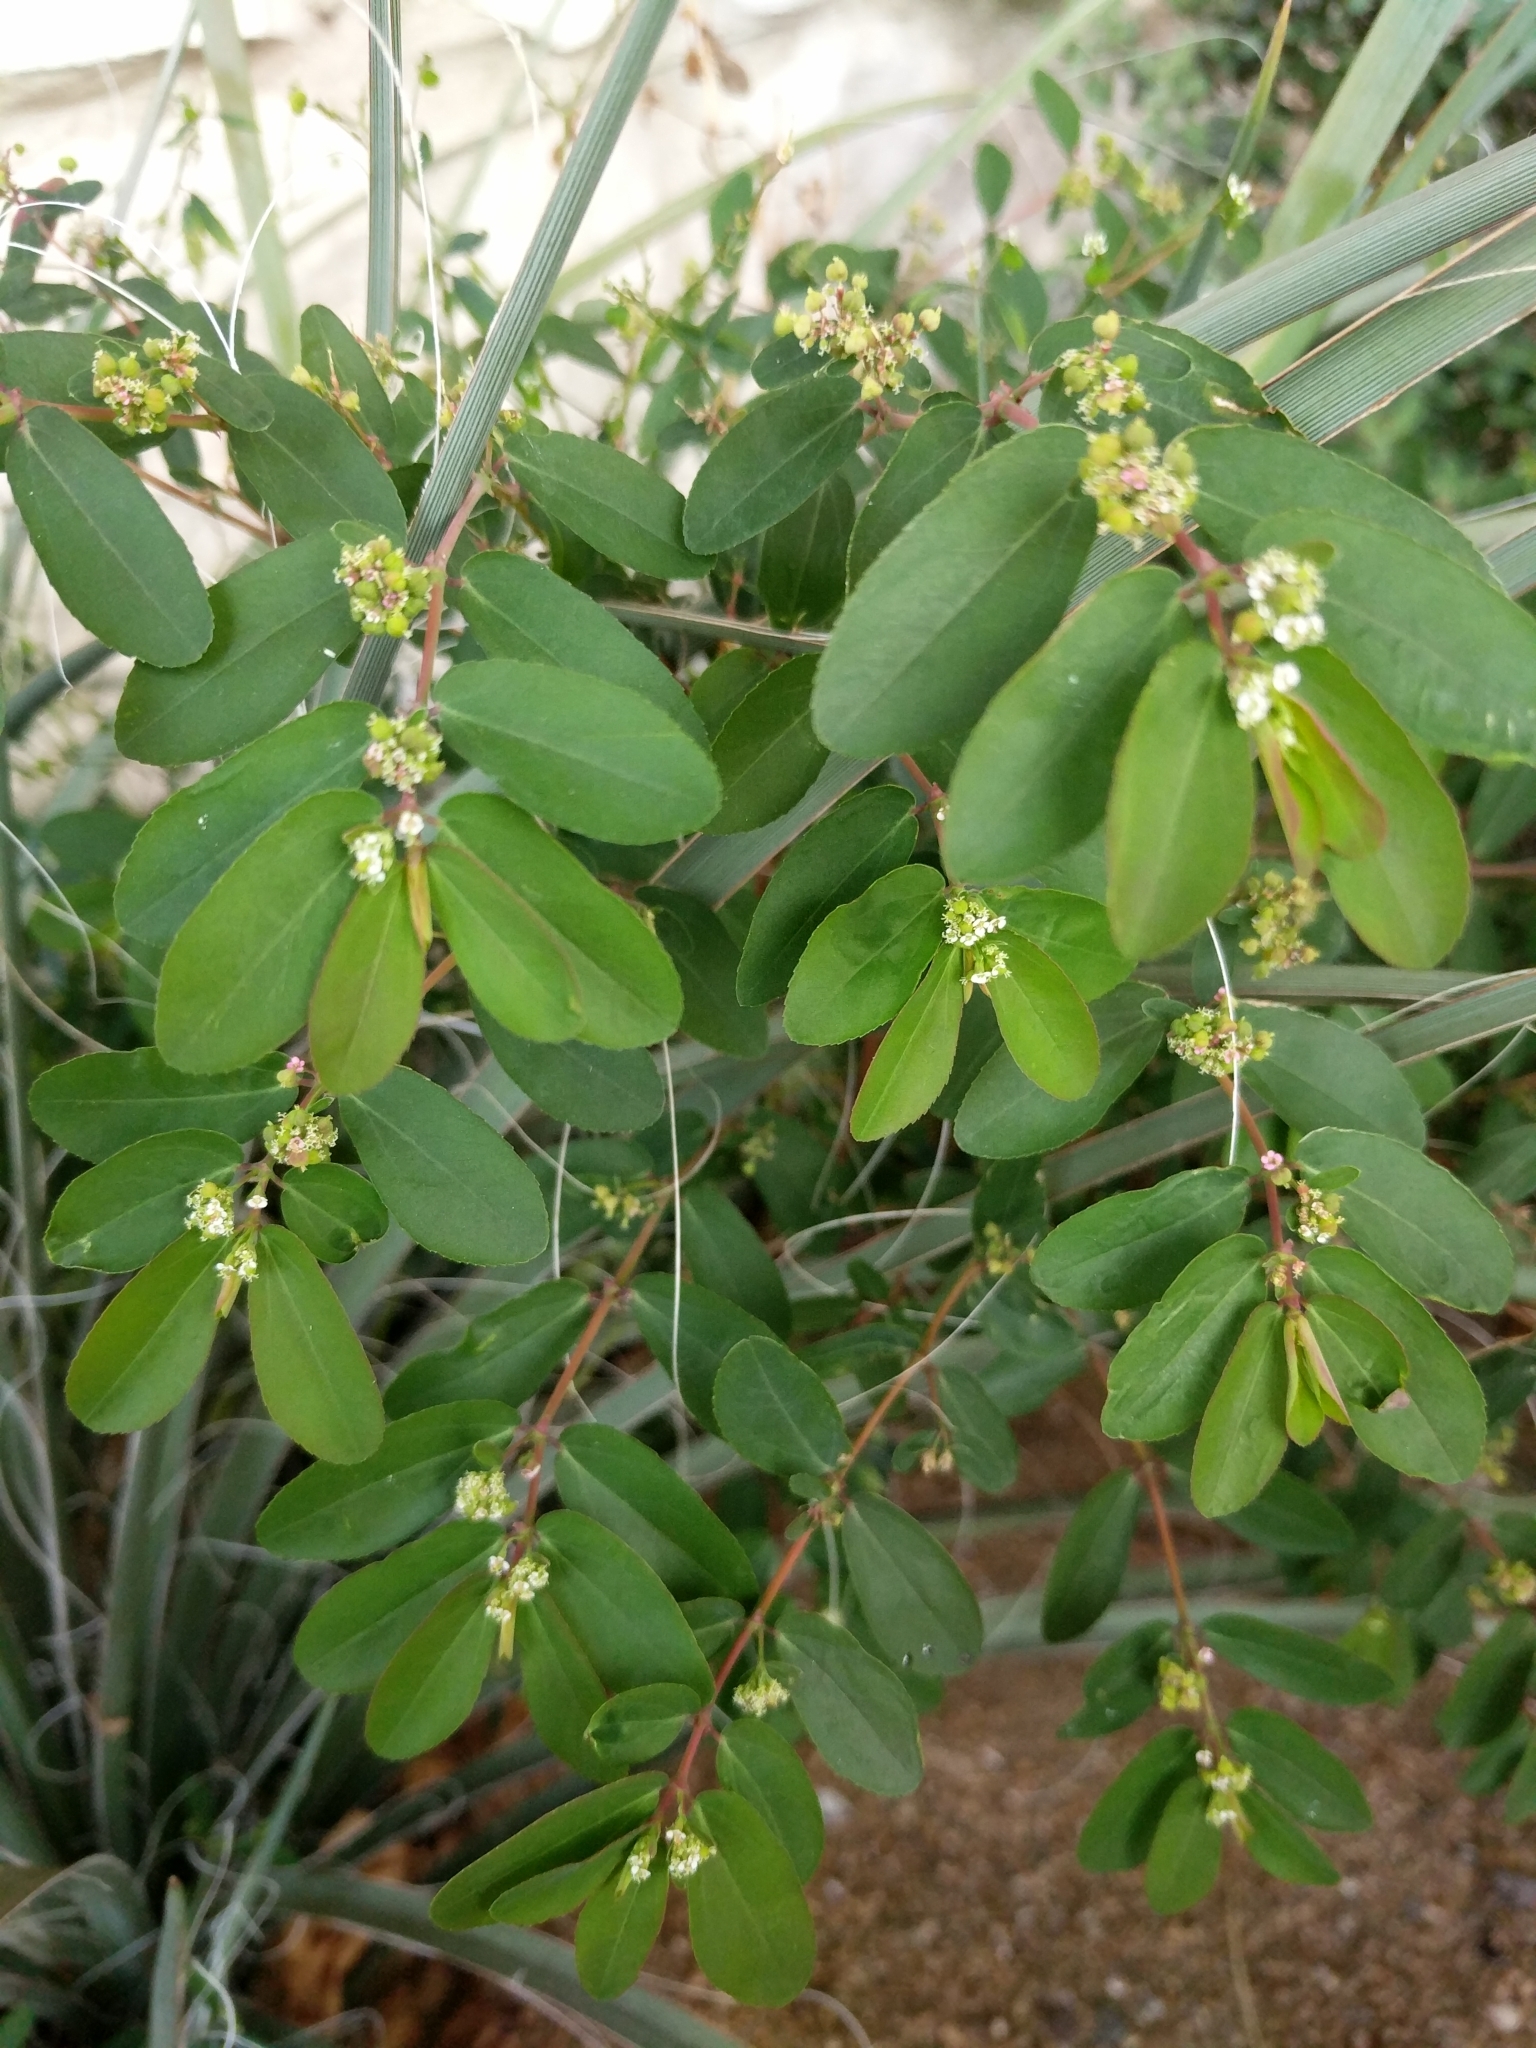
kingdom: Plantae
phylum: Tracheophyta
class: Magnoliopsida
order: Malpighiales
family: Euphorbiaceae
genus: Euphorbia
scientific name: Euphorbia hypericifolia
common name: Graceful sandmat
